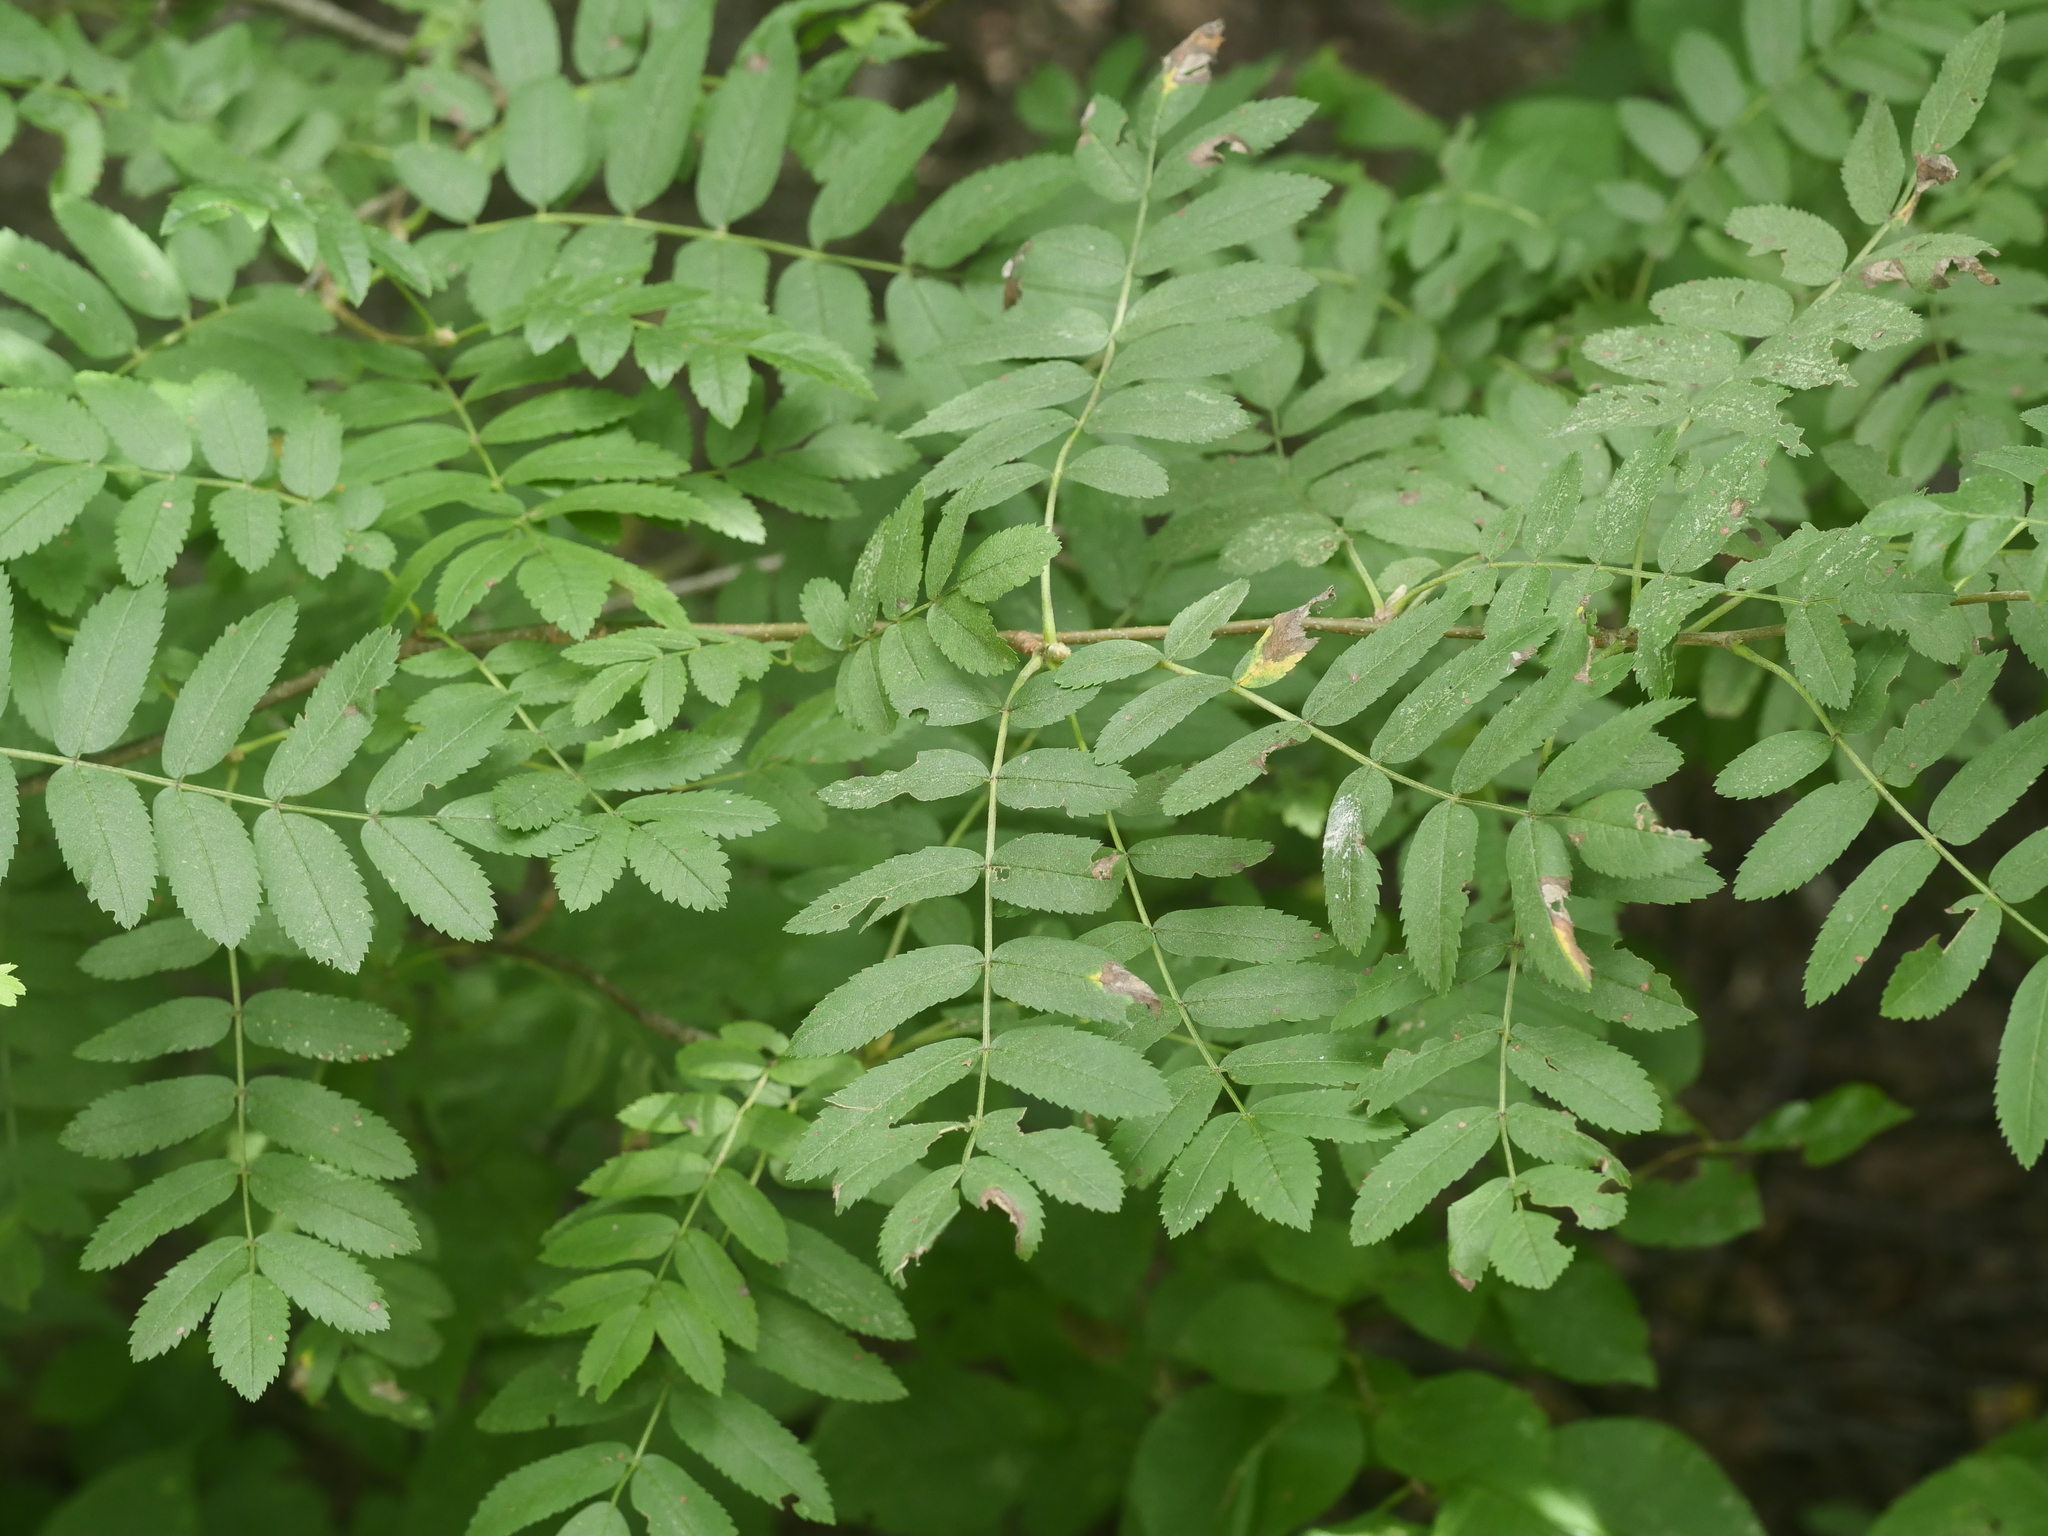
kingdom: Plantae
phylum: Tracheophyta
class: Magnoliopsida
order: Rosales
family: Rosaceae
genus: Sorbus
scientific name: Sorbus aucuparia
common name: Rowan
